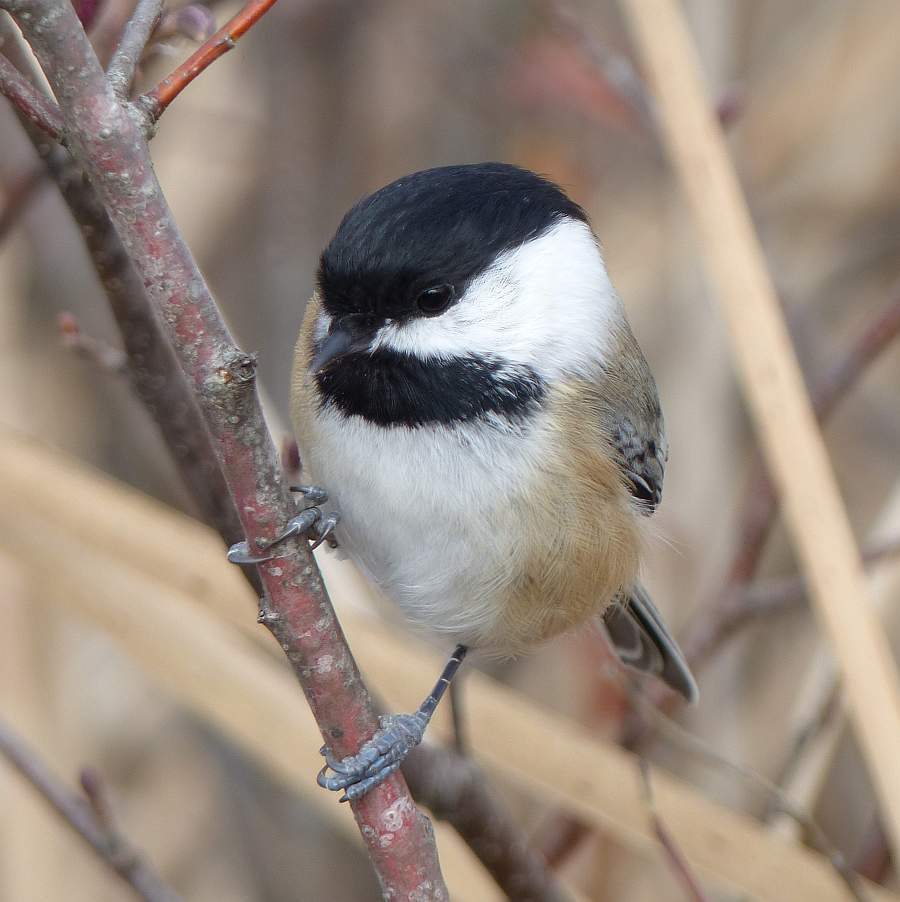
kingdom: Animalia
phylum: Chordata
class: Aves
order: Passeriformes
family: Paridae
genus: Poecile
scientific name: Poecile atricapillus
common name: Black-capped chickadee
